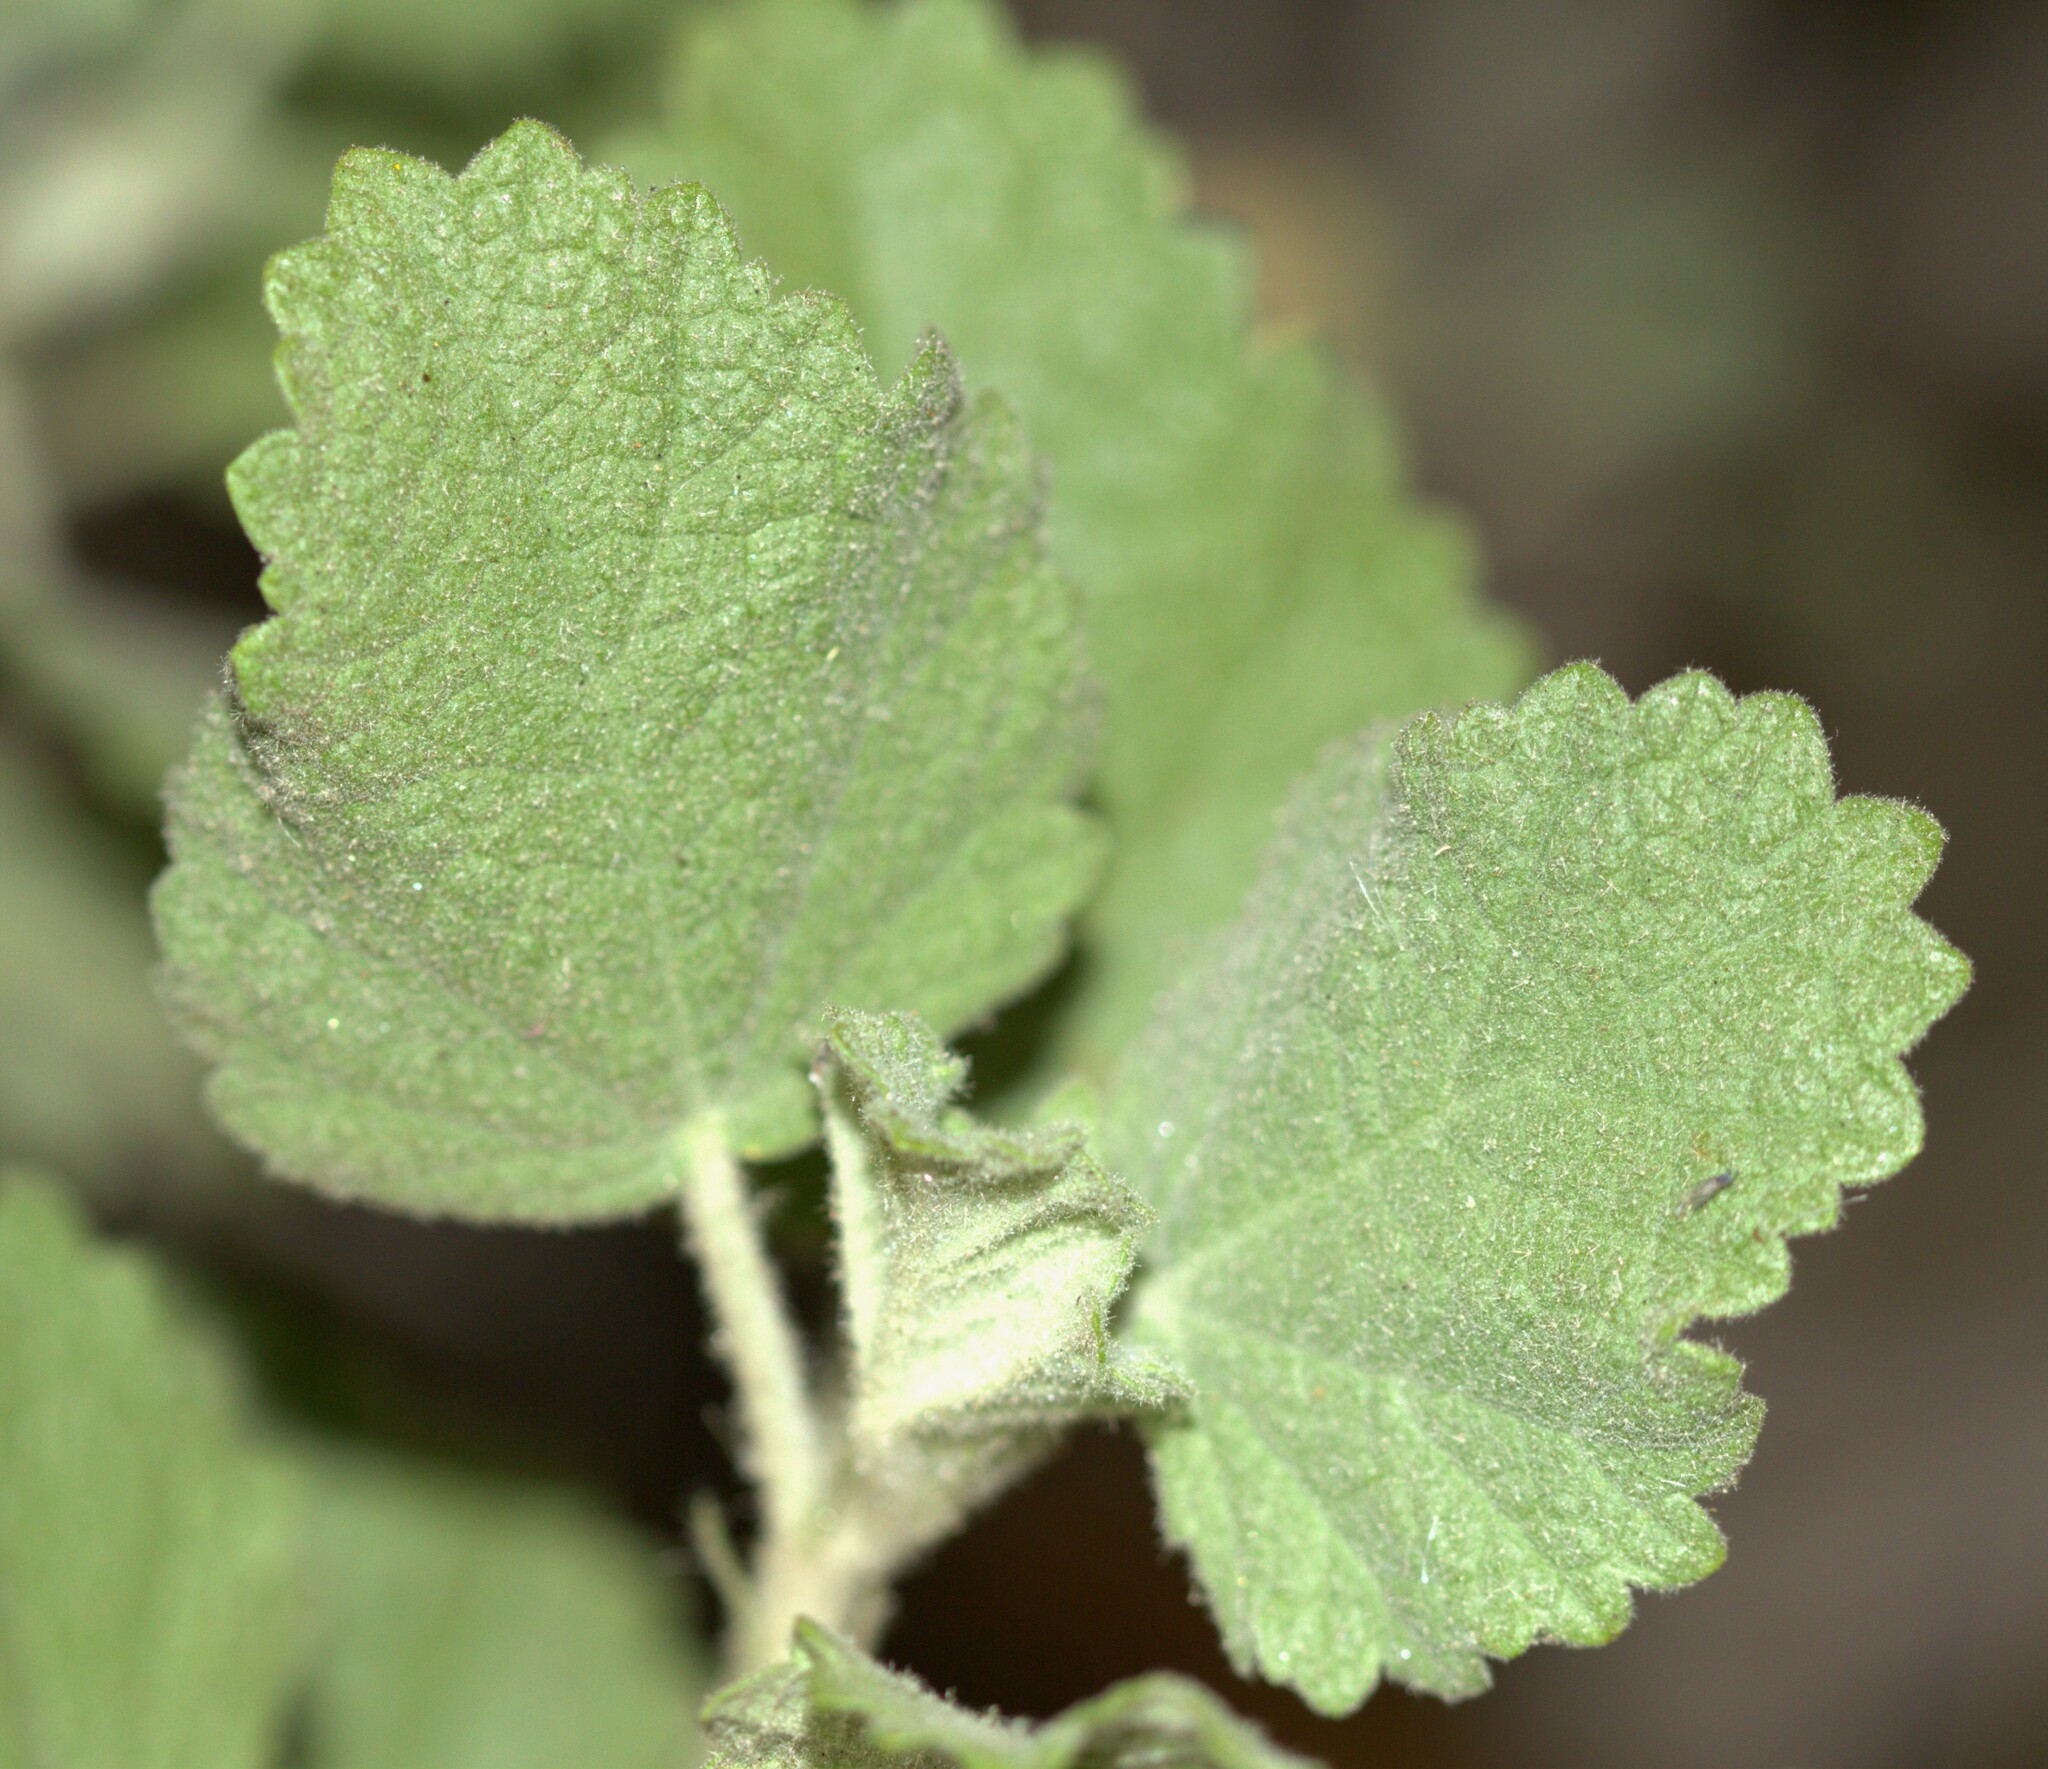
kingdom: Plantae
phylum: Tracheophyta
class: Magnoliopsida
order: Malvales
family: Malvaceae
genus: Malacothamnus
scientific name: Malacothamnus marrubioides
